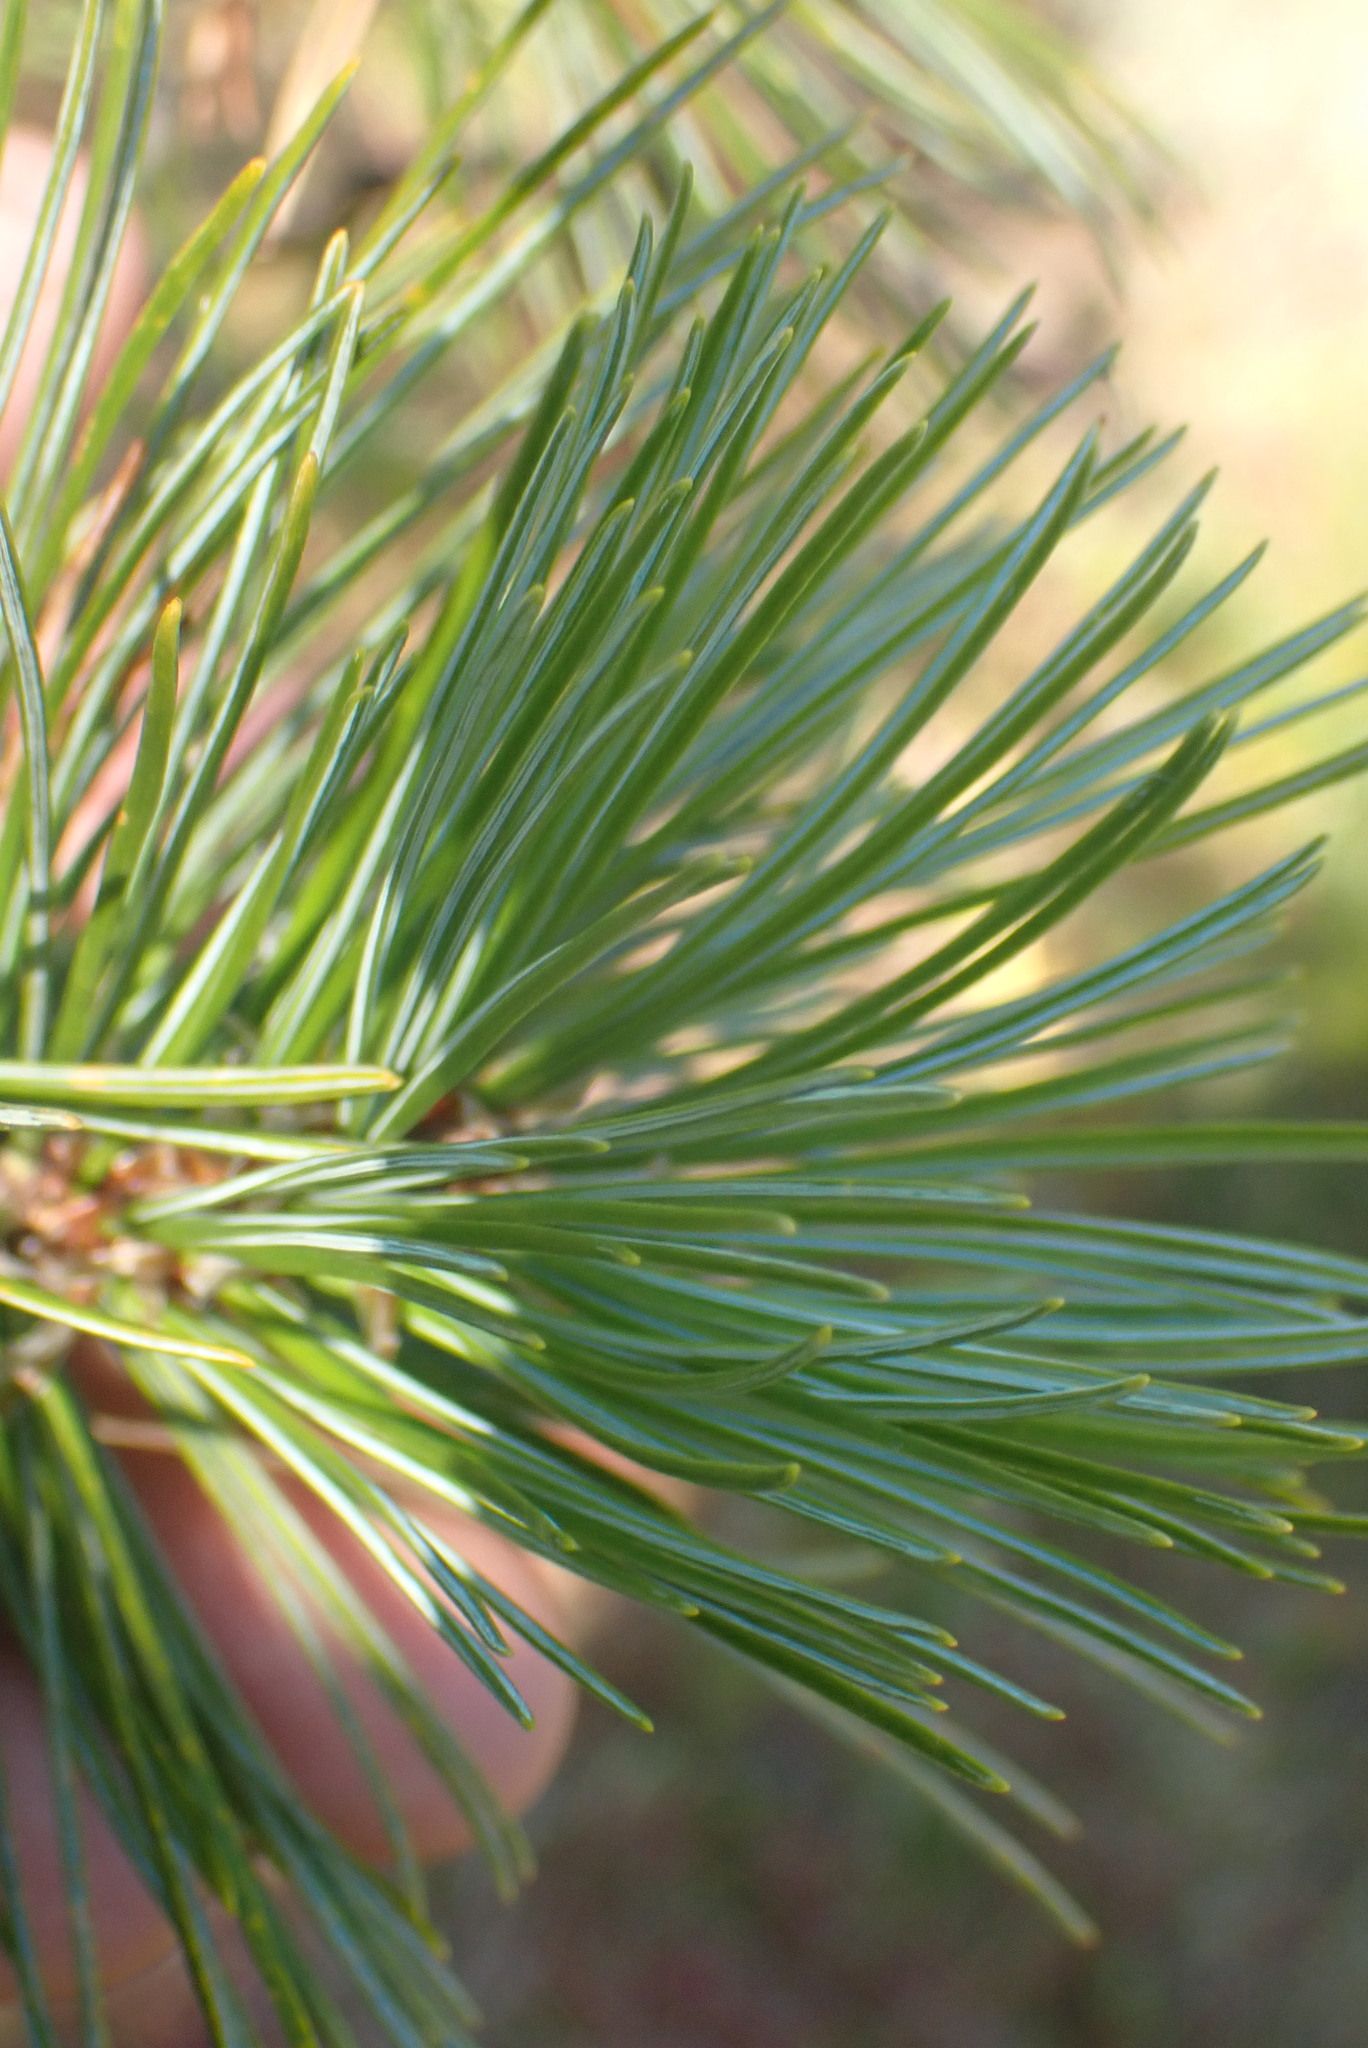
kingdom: Plantae
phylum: Tracheophyta
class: Pinopsida
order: Pinales
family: Pinaceae
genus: Pinus
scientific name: Pinus monticola
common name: Western white pine
